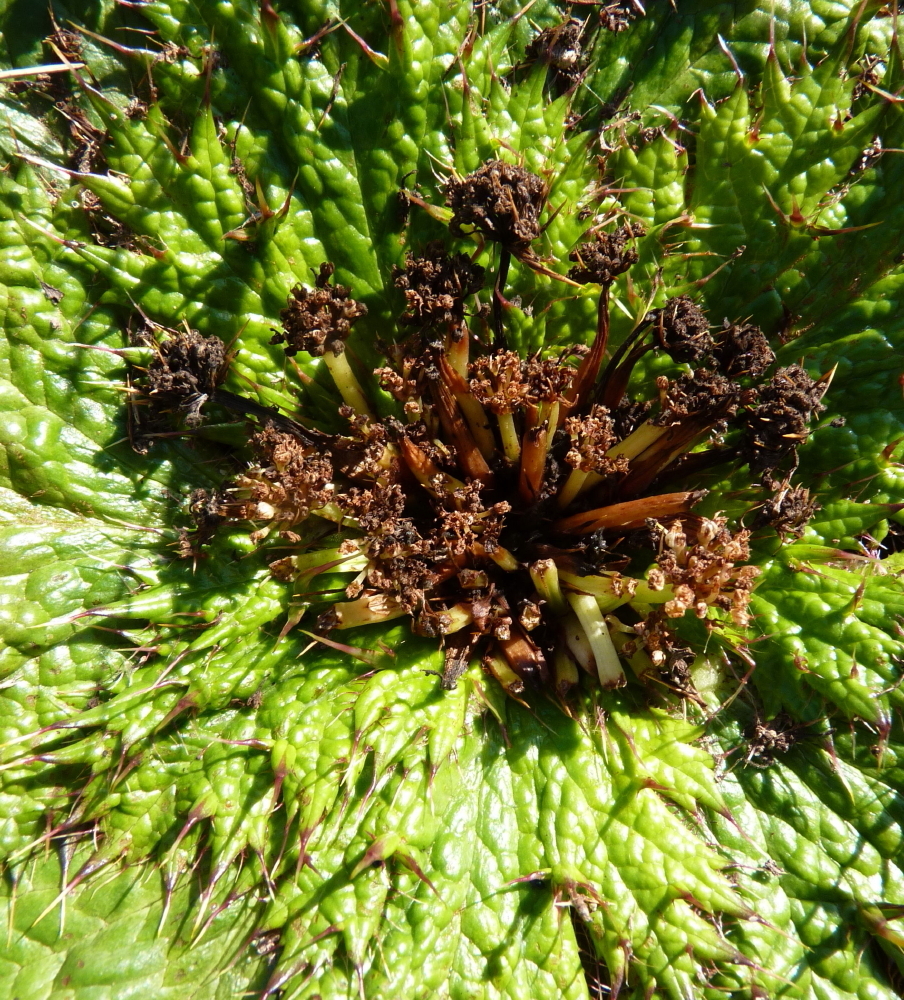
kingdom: Plantae
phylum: Tracheophyta
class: Magnoliopsida
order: Apiales
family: Apiaceae
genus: Arctopus
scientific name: Arctopus echinatus
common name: Platdoring
